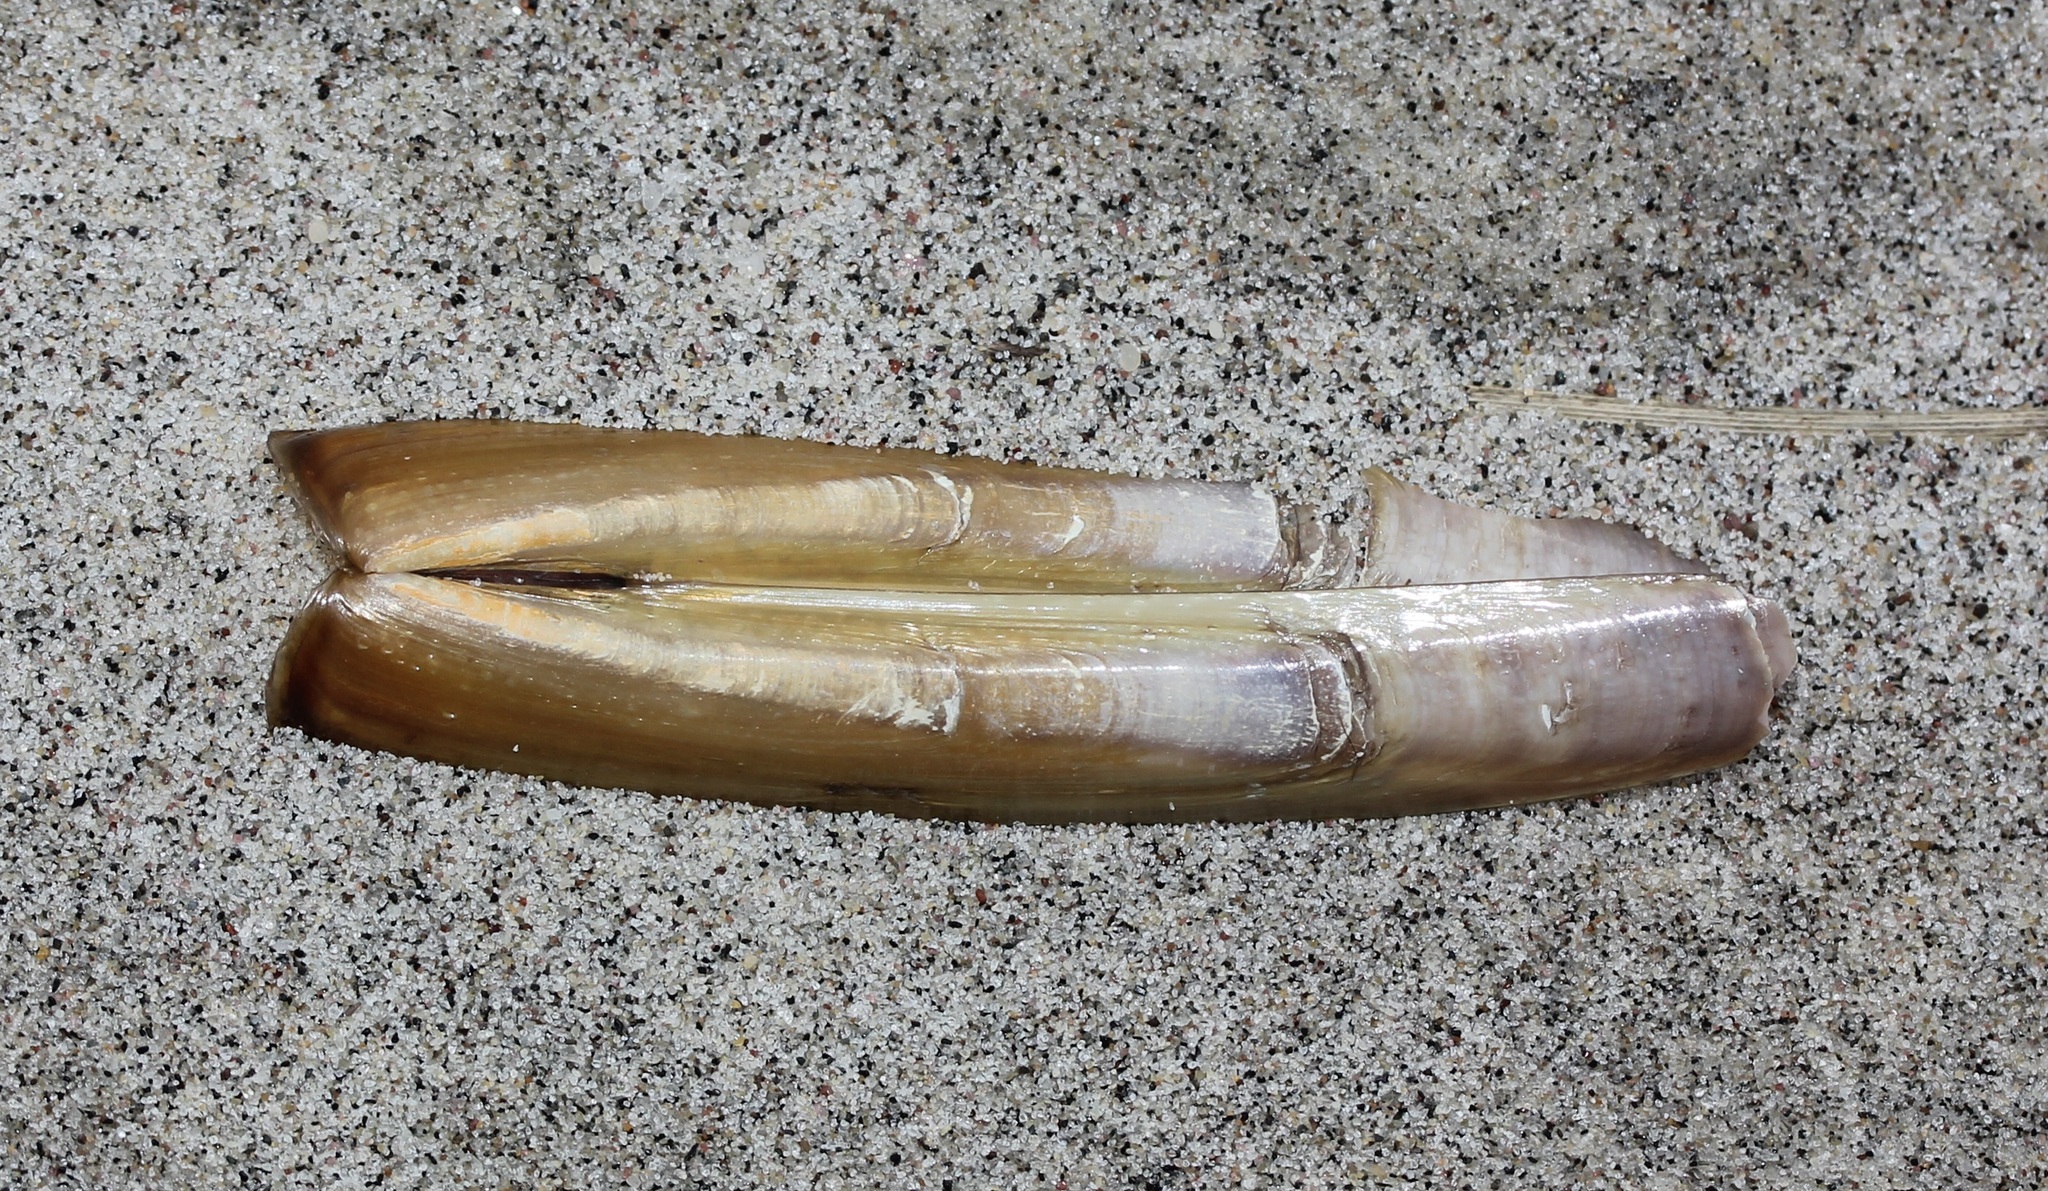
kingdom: Animalia
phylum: Mollusca
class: Bivalvia
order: Adapedonta
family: Pharidae
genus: Ensis
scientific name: Ensis leei
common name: American jack knife clam
